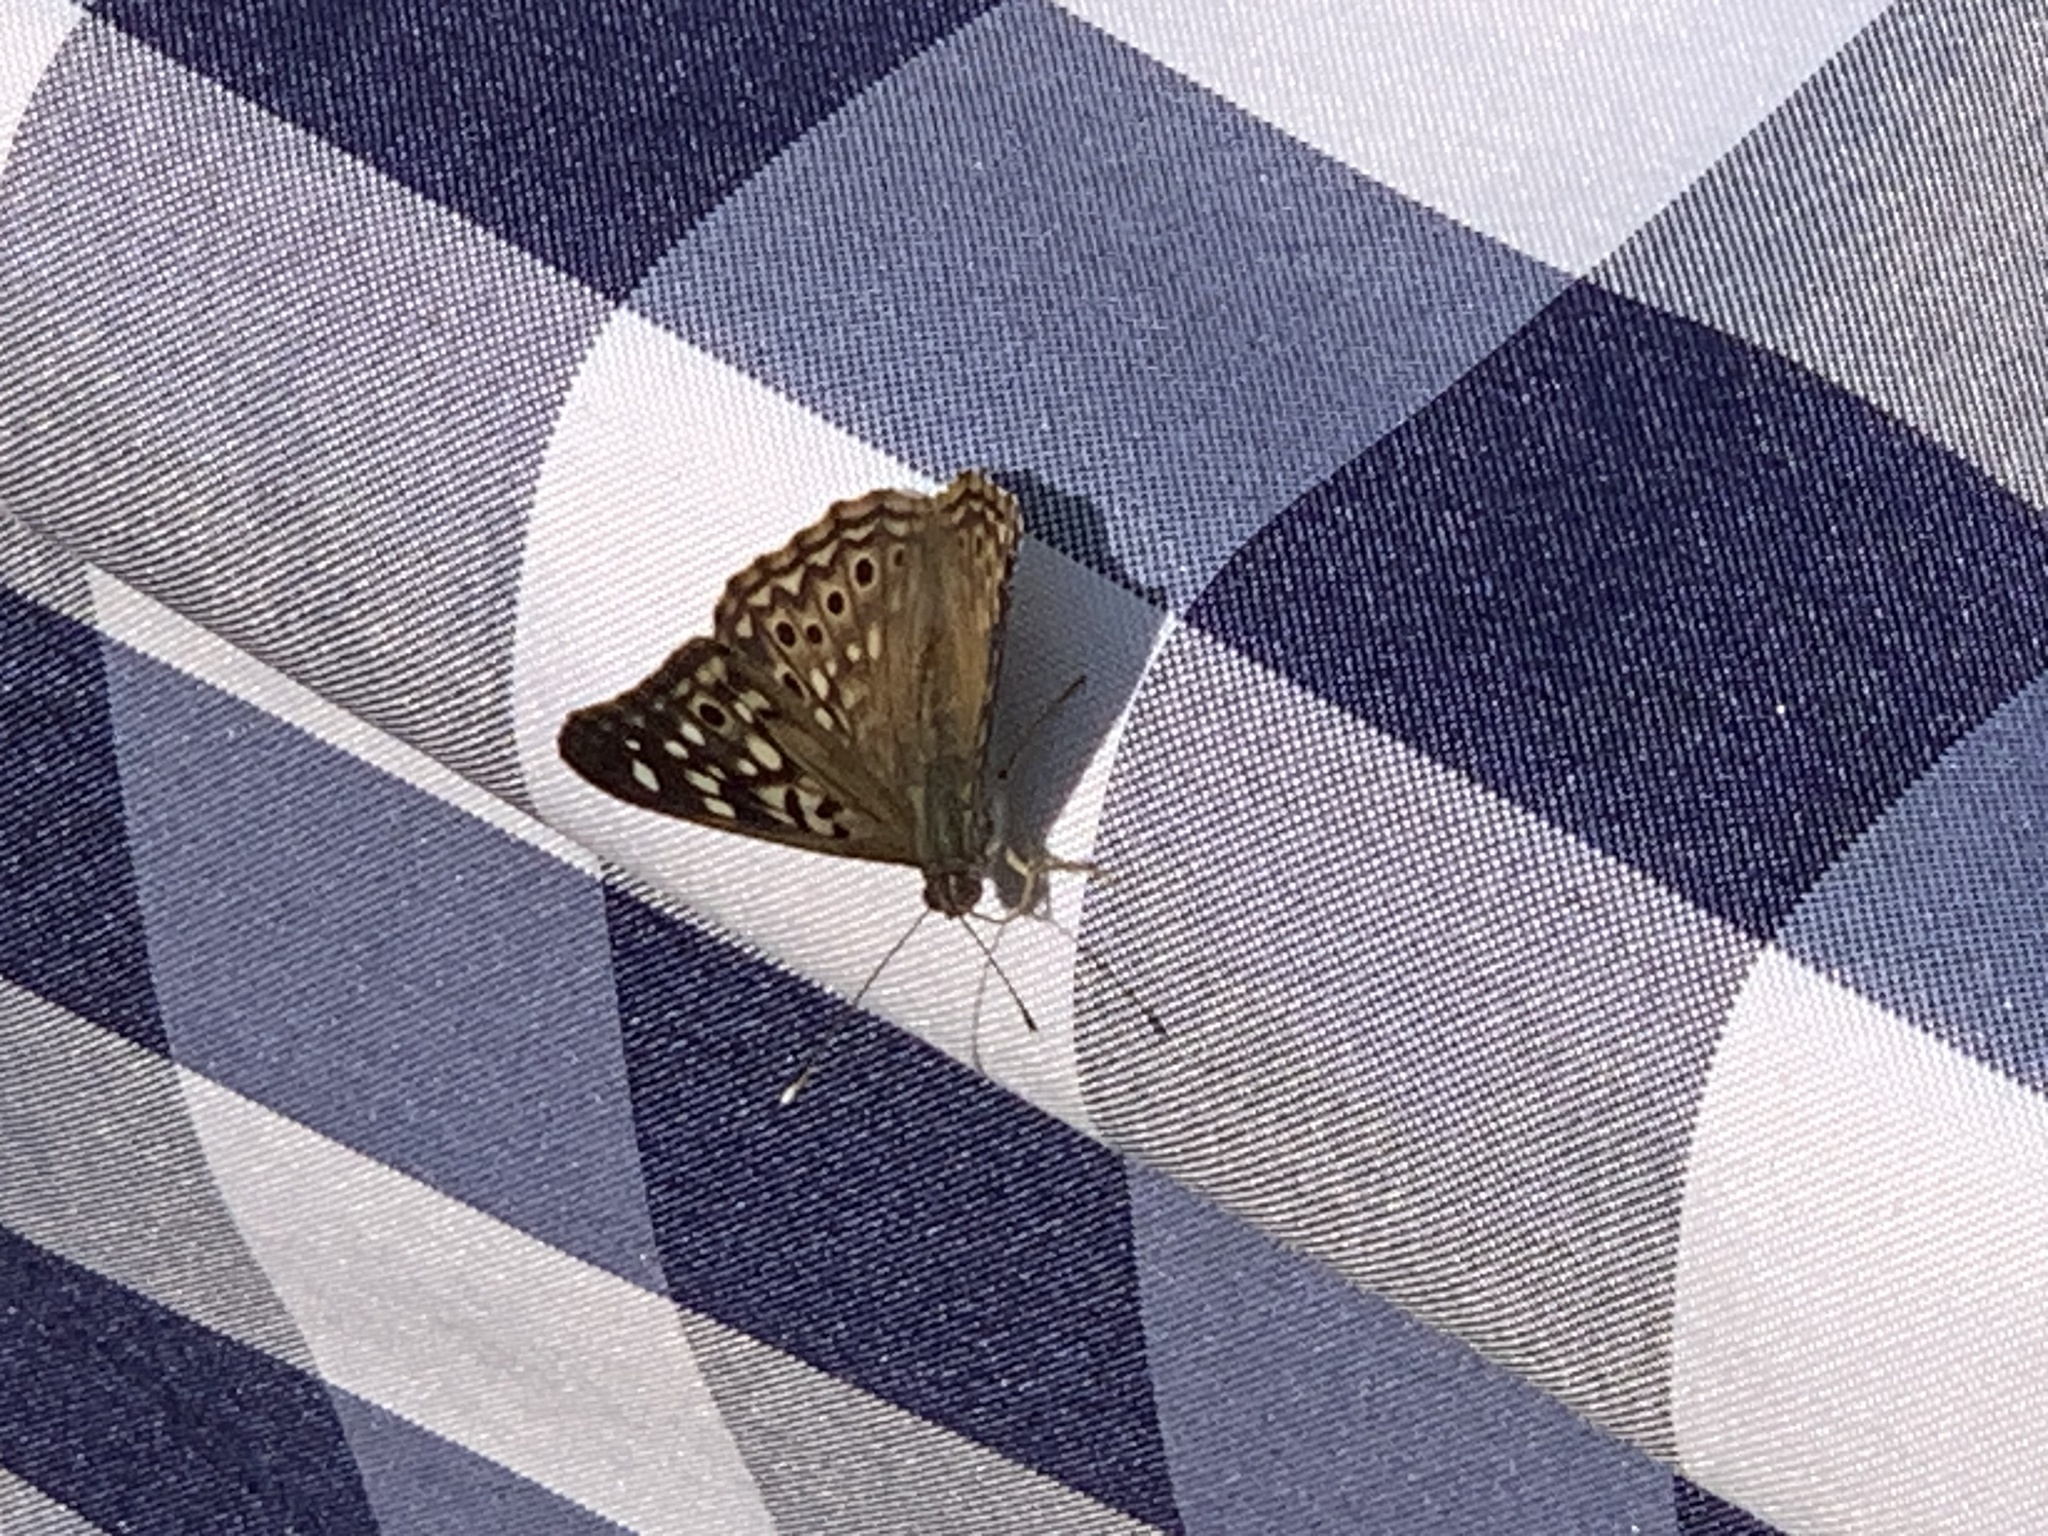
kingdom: Animalia
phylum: Arthropoda
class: Insecta
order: Lepidoptera
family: Nymphalidae
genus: Asterocampa
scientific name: Asterocampa celtis
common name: Hackberry emperor
